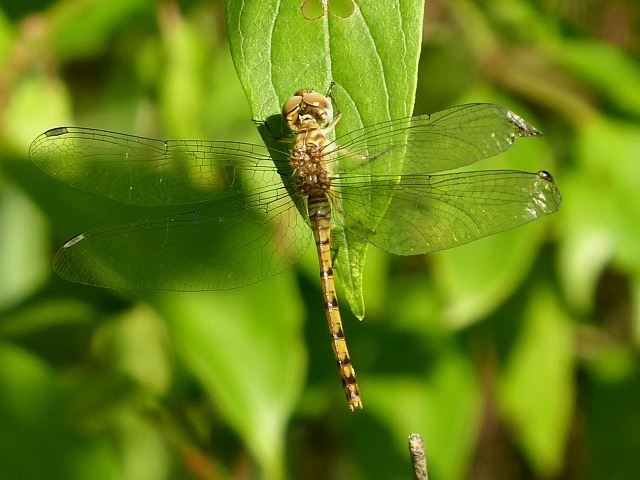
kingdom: Animalia
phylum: Arthropoda
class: Insecta
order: Odonata
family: Libellulidae
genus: Sympetrum
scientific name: Sympetrum ambiguum
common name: Blue-faced meadowhawk
